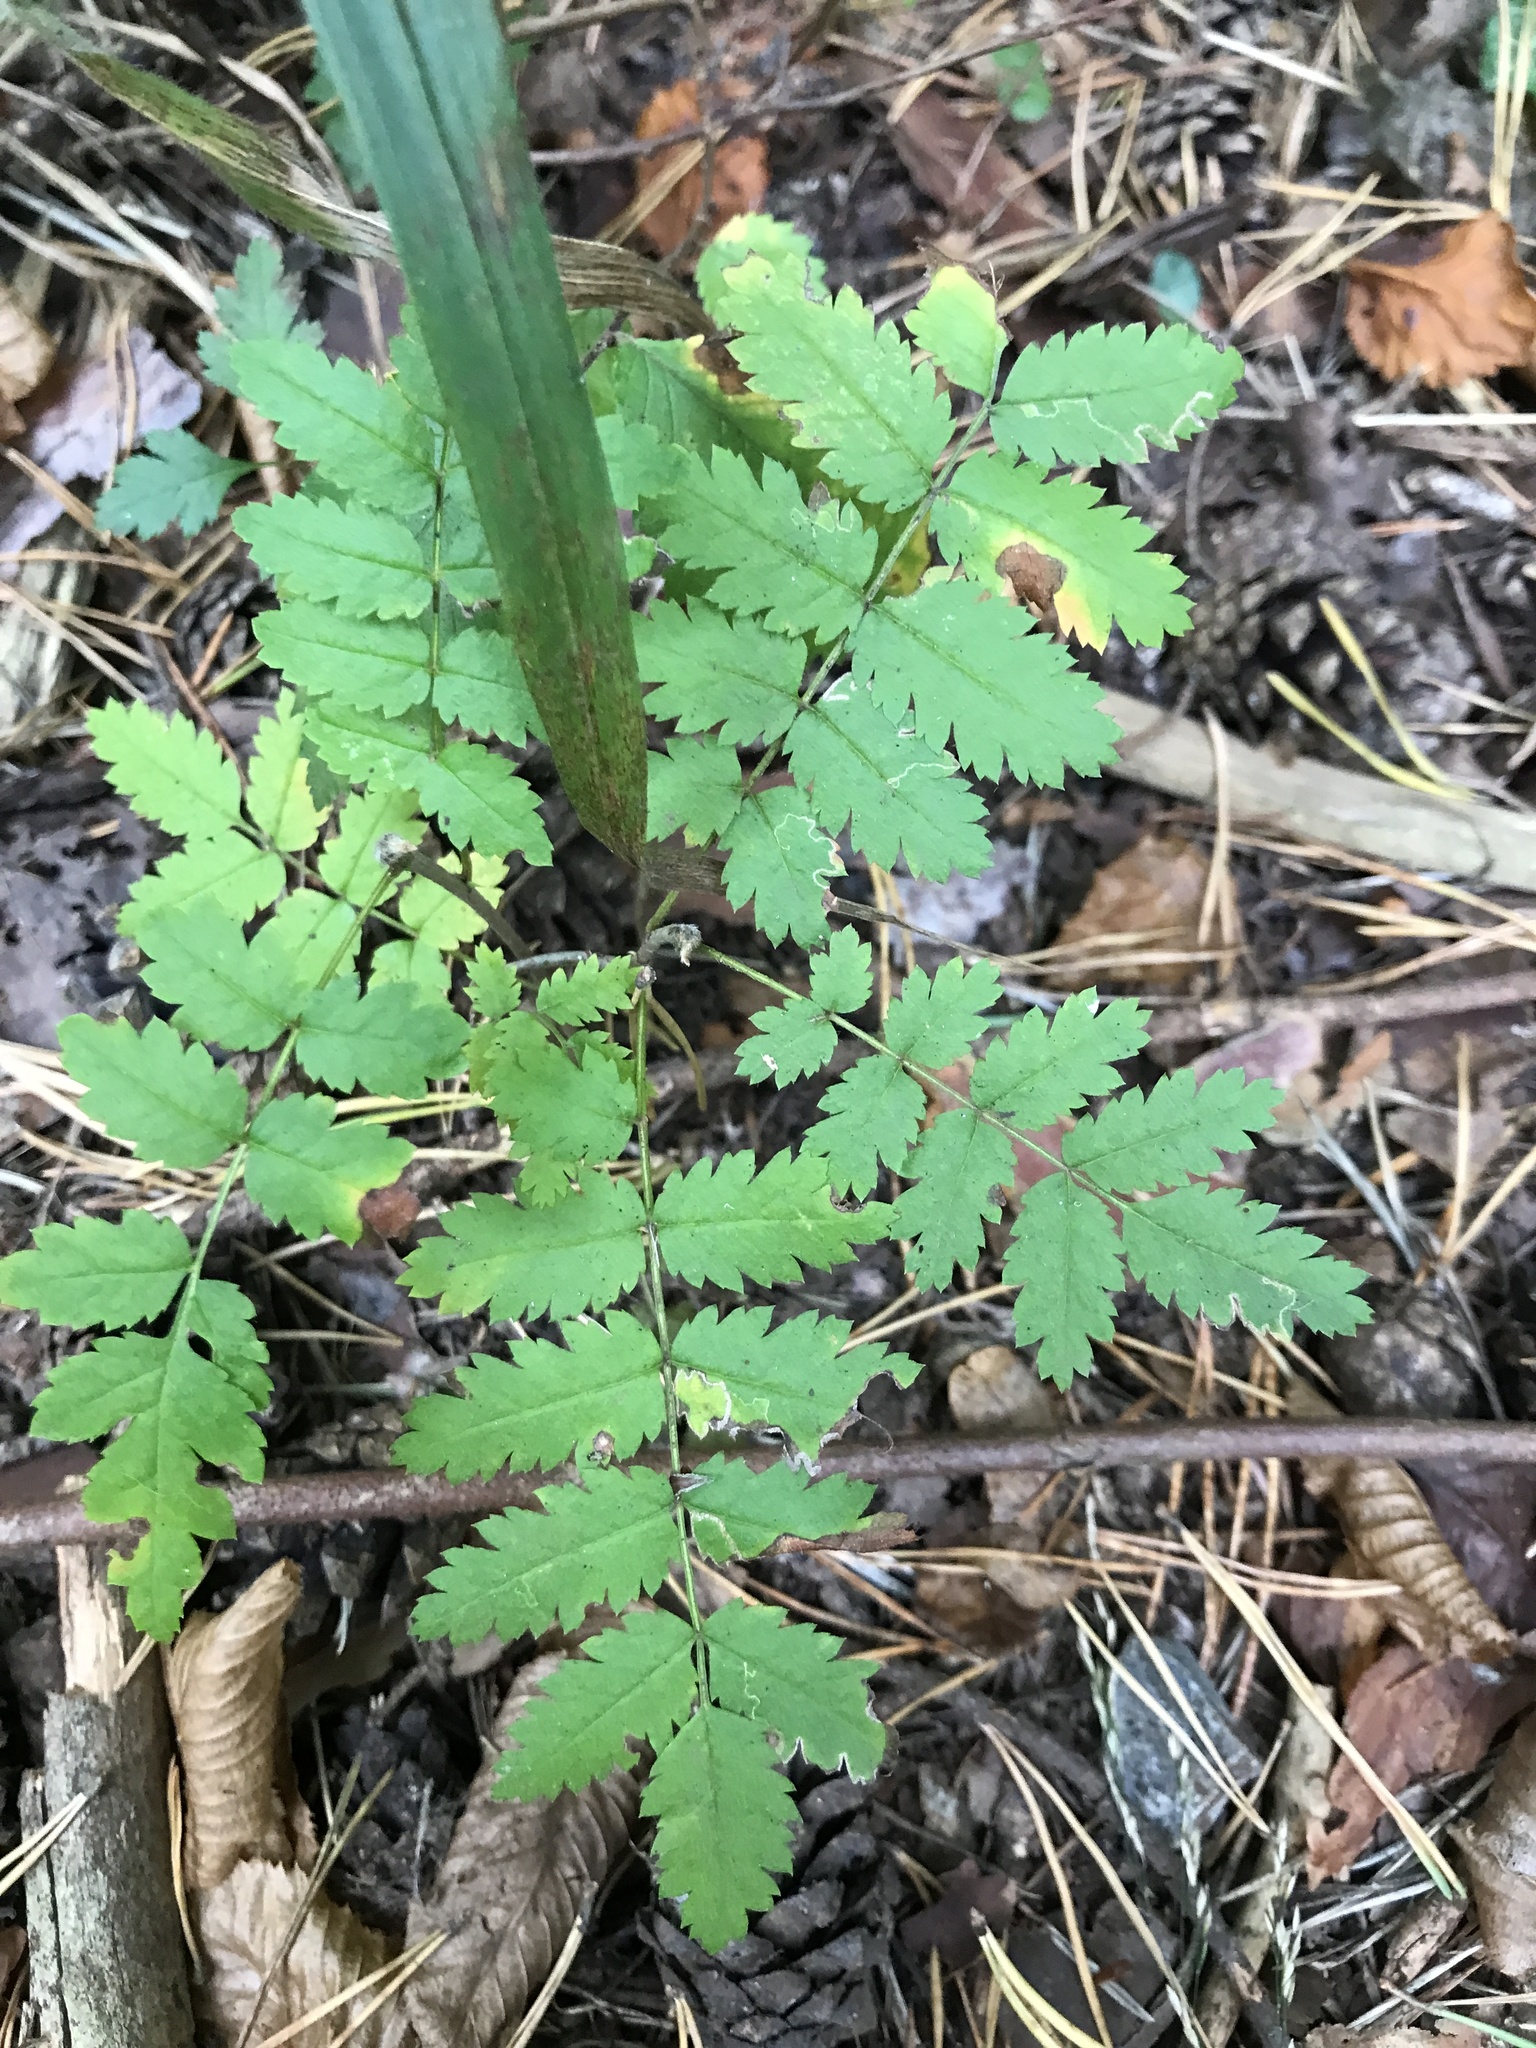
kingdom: Plantae
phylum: Tracheophyta
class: Magnoliopsida
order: Rosales
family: Rosaceae
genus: Sorbus
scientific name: Sorbus aucuparia
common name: Rowan
